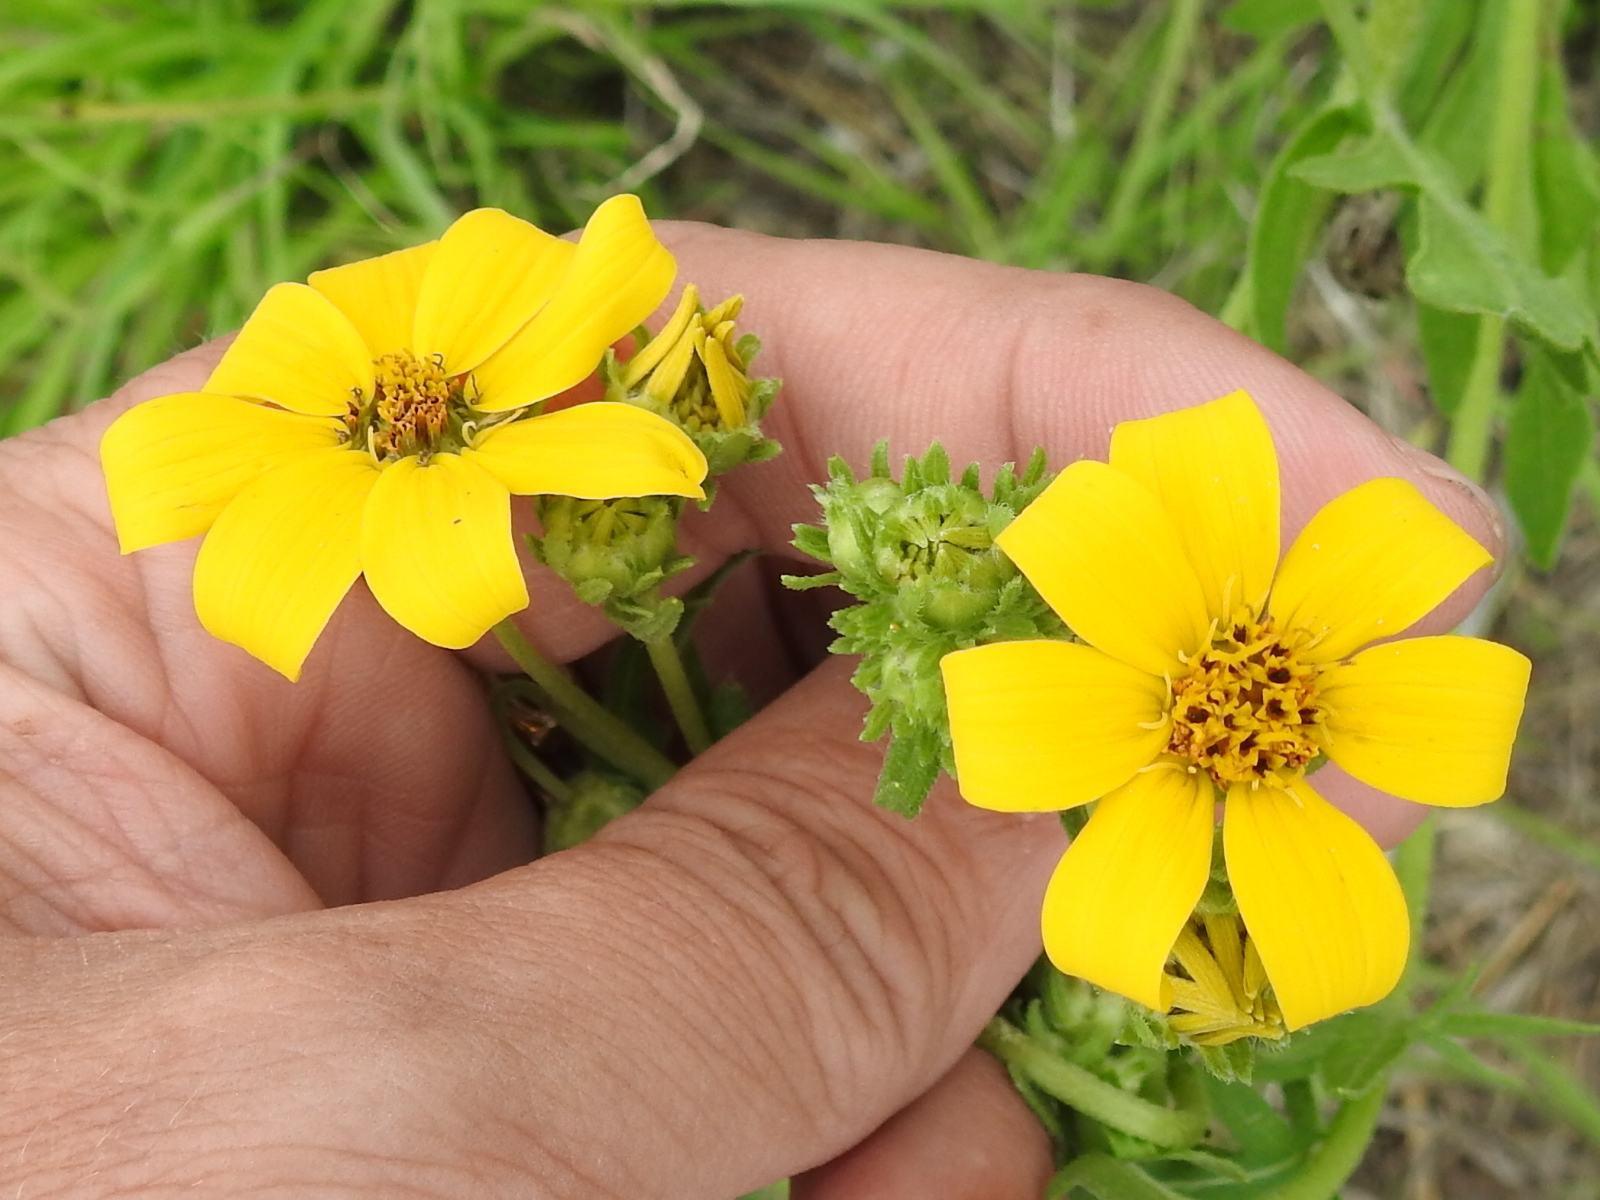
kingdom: Plantae
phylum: Tracheophyta
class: Magnoliopsida
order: Asterales
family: Asteraceae
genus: Engelmannia
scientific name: Engelmannia peristenia
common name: Engelmann's daisy
